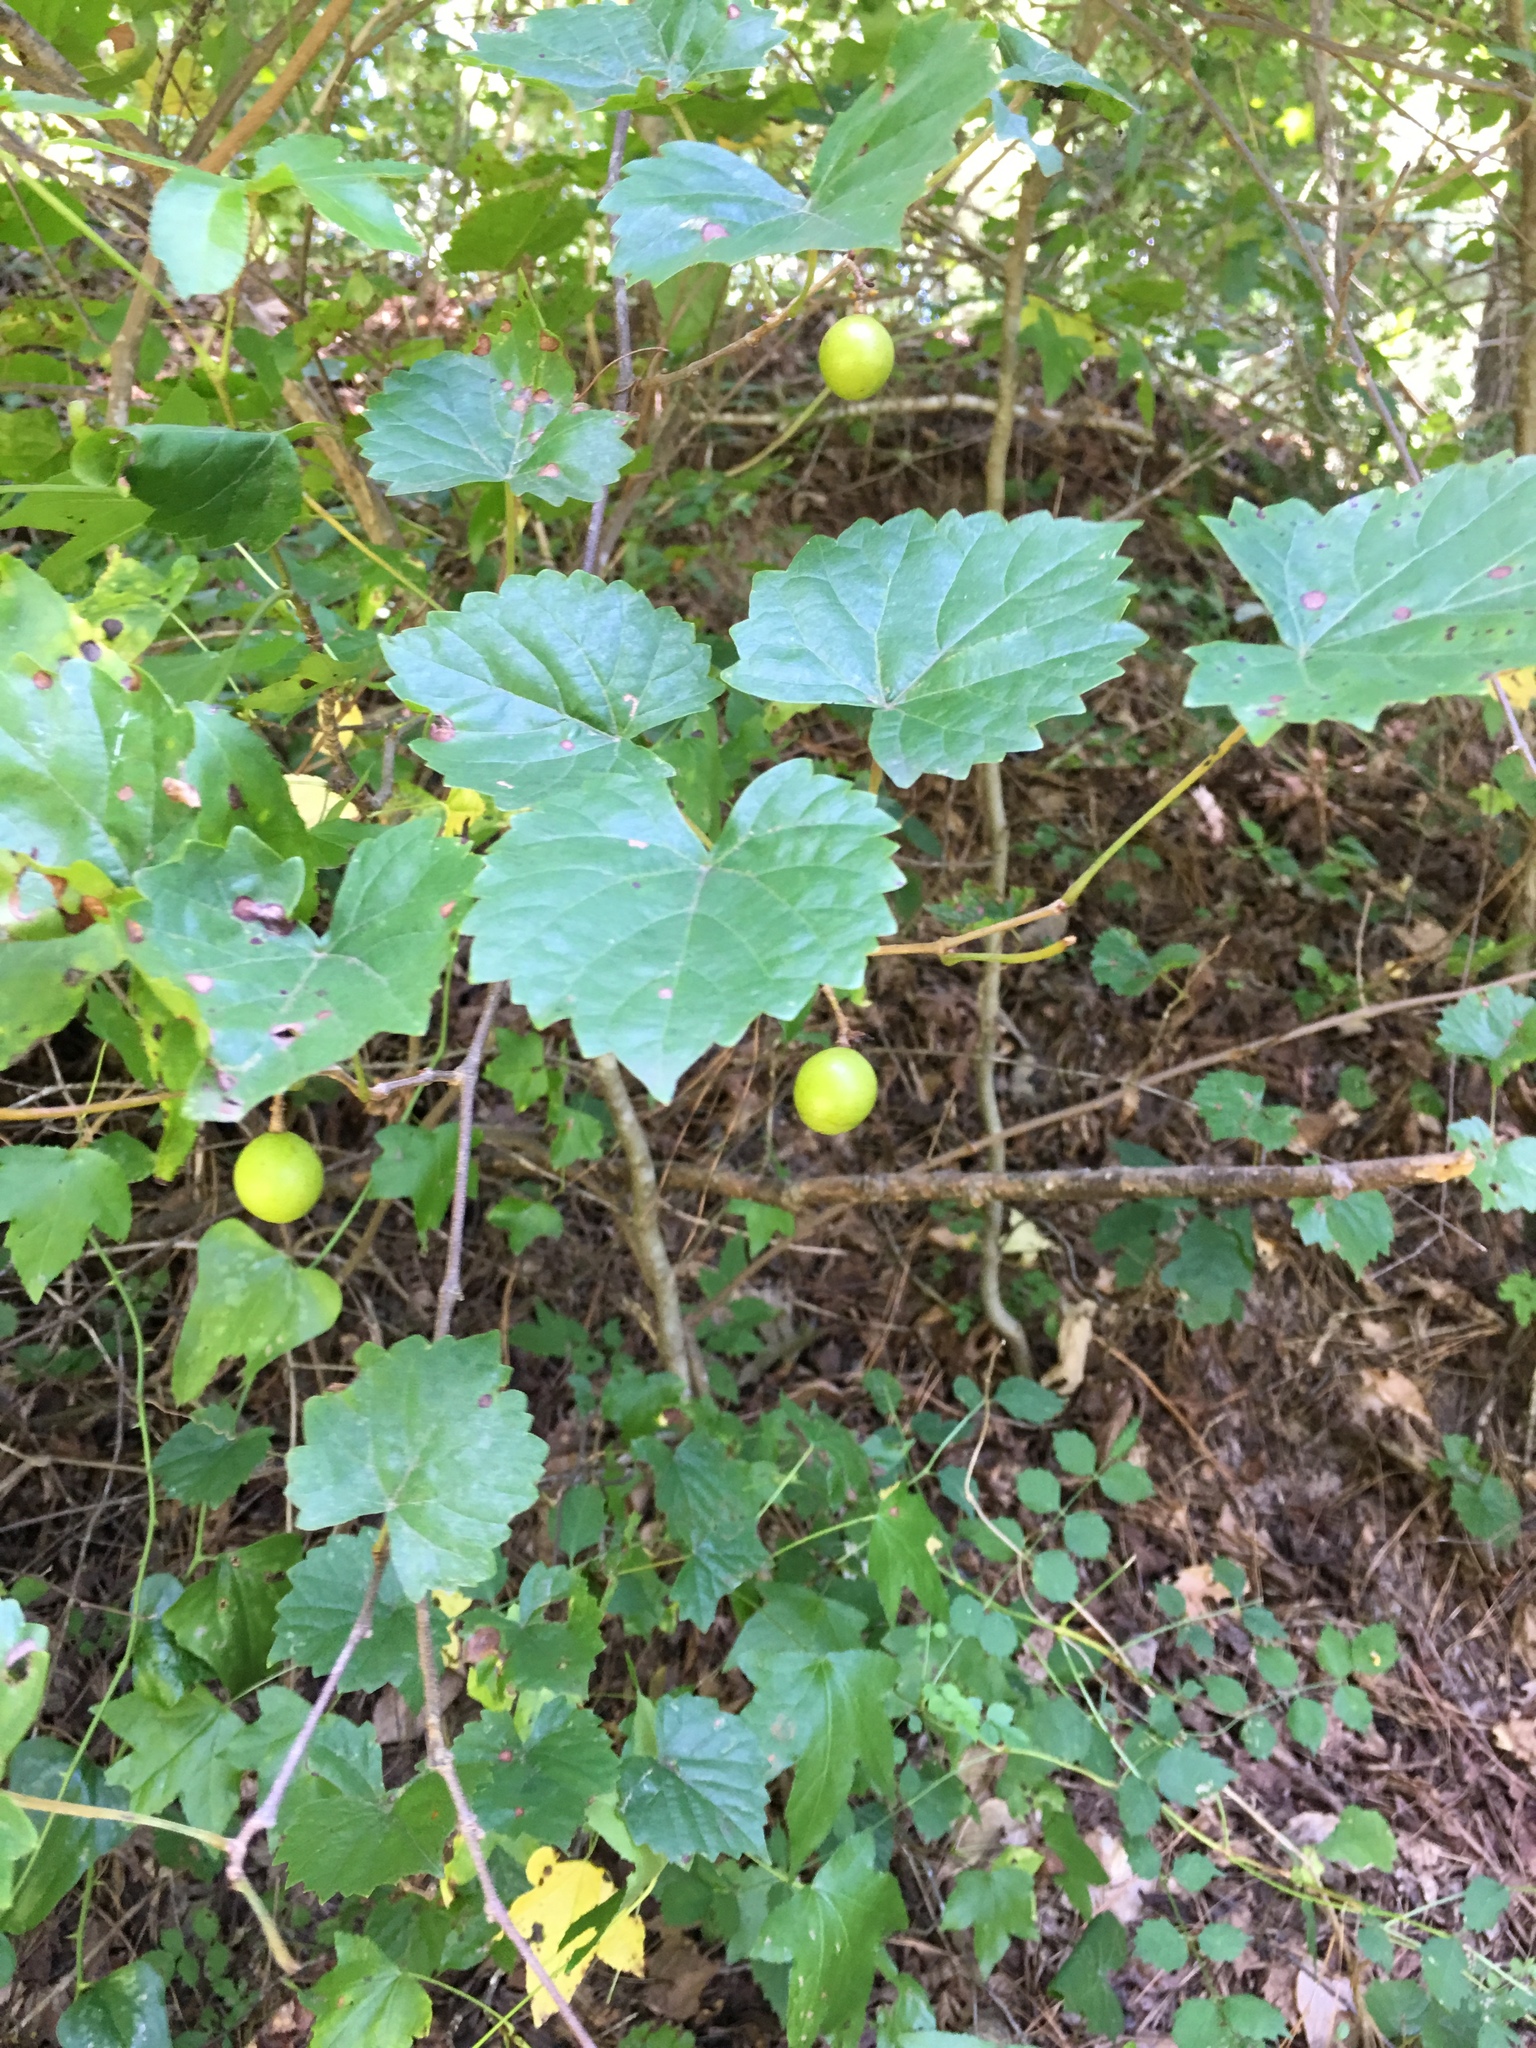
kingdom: Plantae
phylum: Tracheophyta
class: Magnoliopsida
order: Vitales
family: Vitaceae
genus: Vitis
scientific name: Vitis rotundifolia
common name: Muscadine grape
